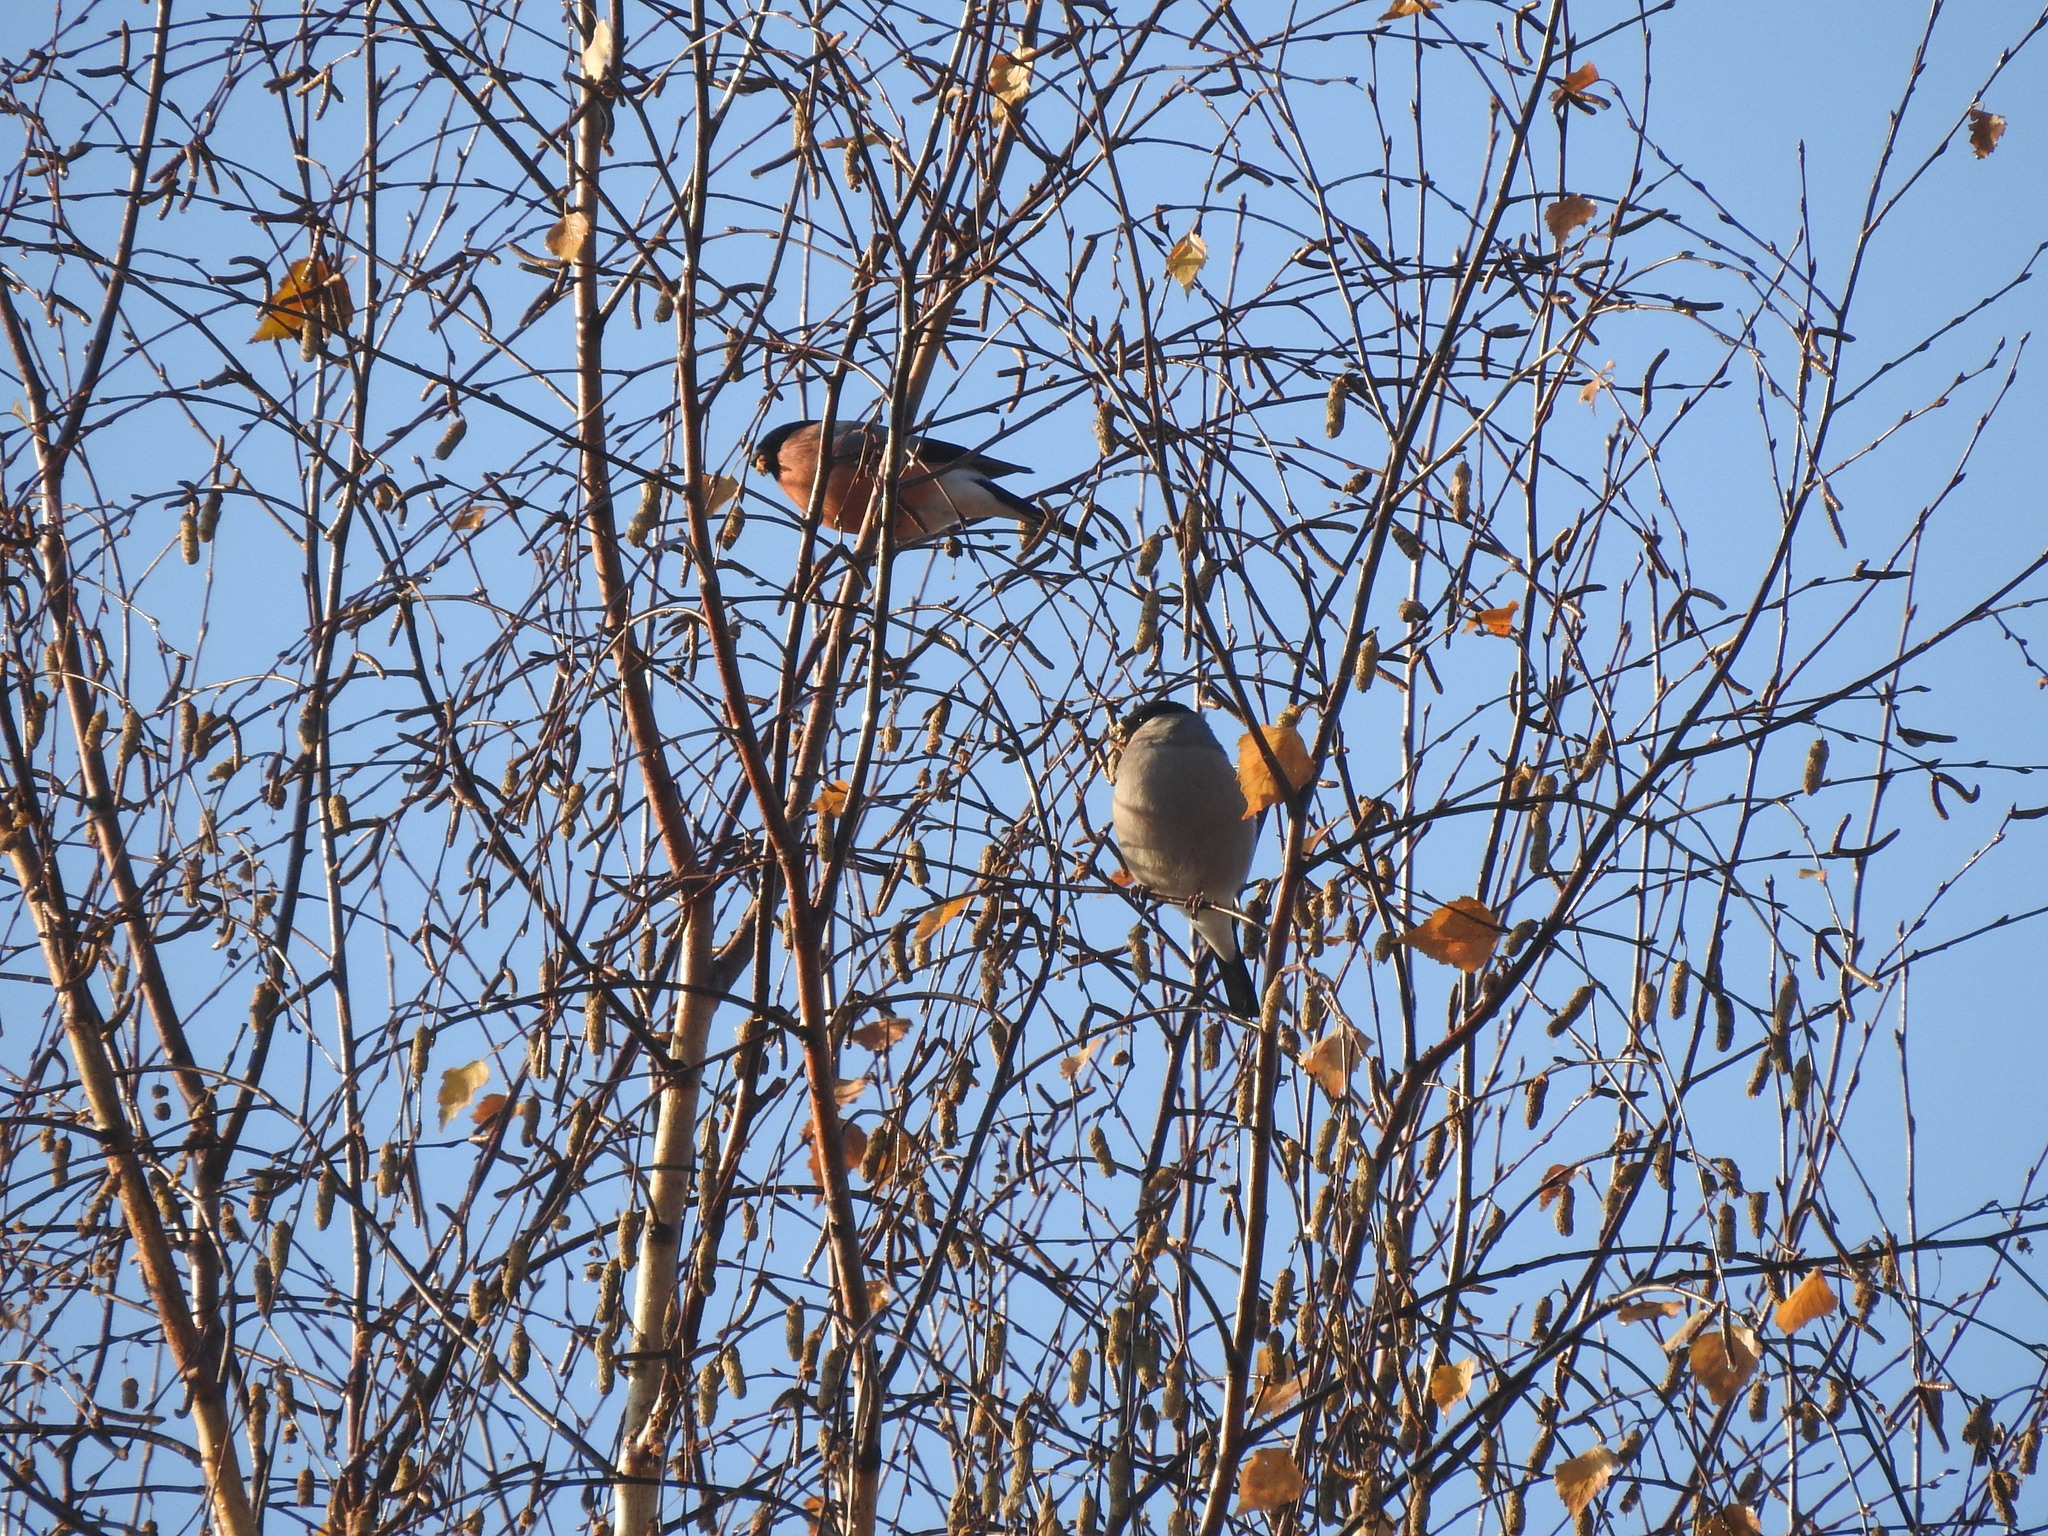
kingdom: Animalia
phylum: Chordata
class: Aves
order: Passeriformes
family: Fringillidae
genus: Pyrrhula
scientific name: Pyrrhula pyrrhula
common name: Eurasian bullfinch
